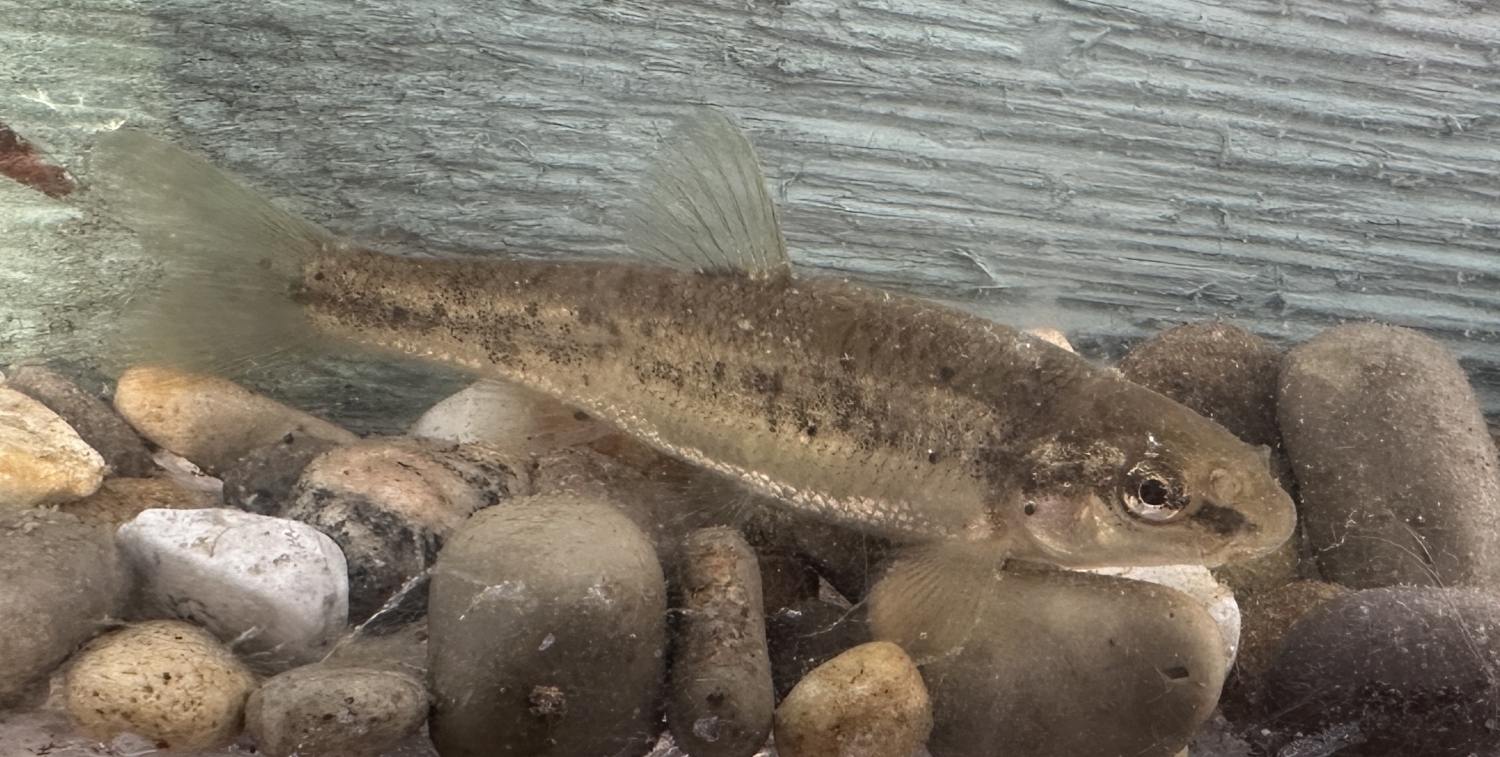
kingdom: Animalia
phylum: Chordata
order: Cypriniformes
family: Cyprinidae
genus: Campostoma
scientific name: Campostoma anomalum
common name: Central stoneroller
